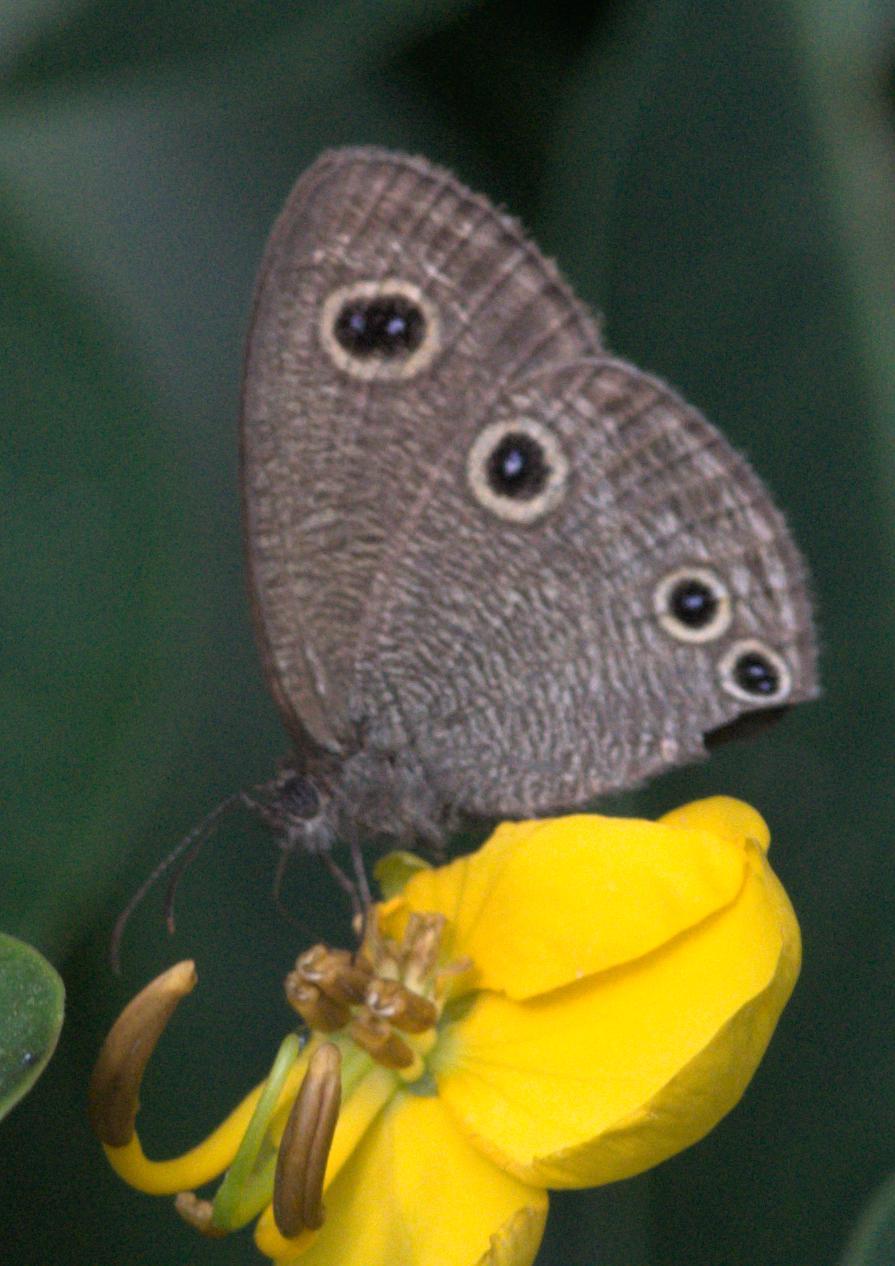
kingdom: Animalia
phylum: Arthropoda
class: Insecta
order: Lepidoptera
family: Nymphalidae
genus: Ypthima
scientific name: Ypthima nareda
